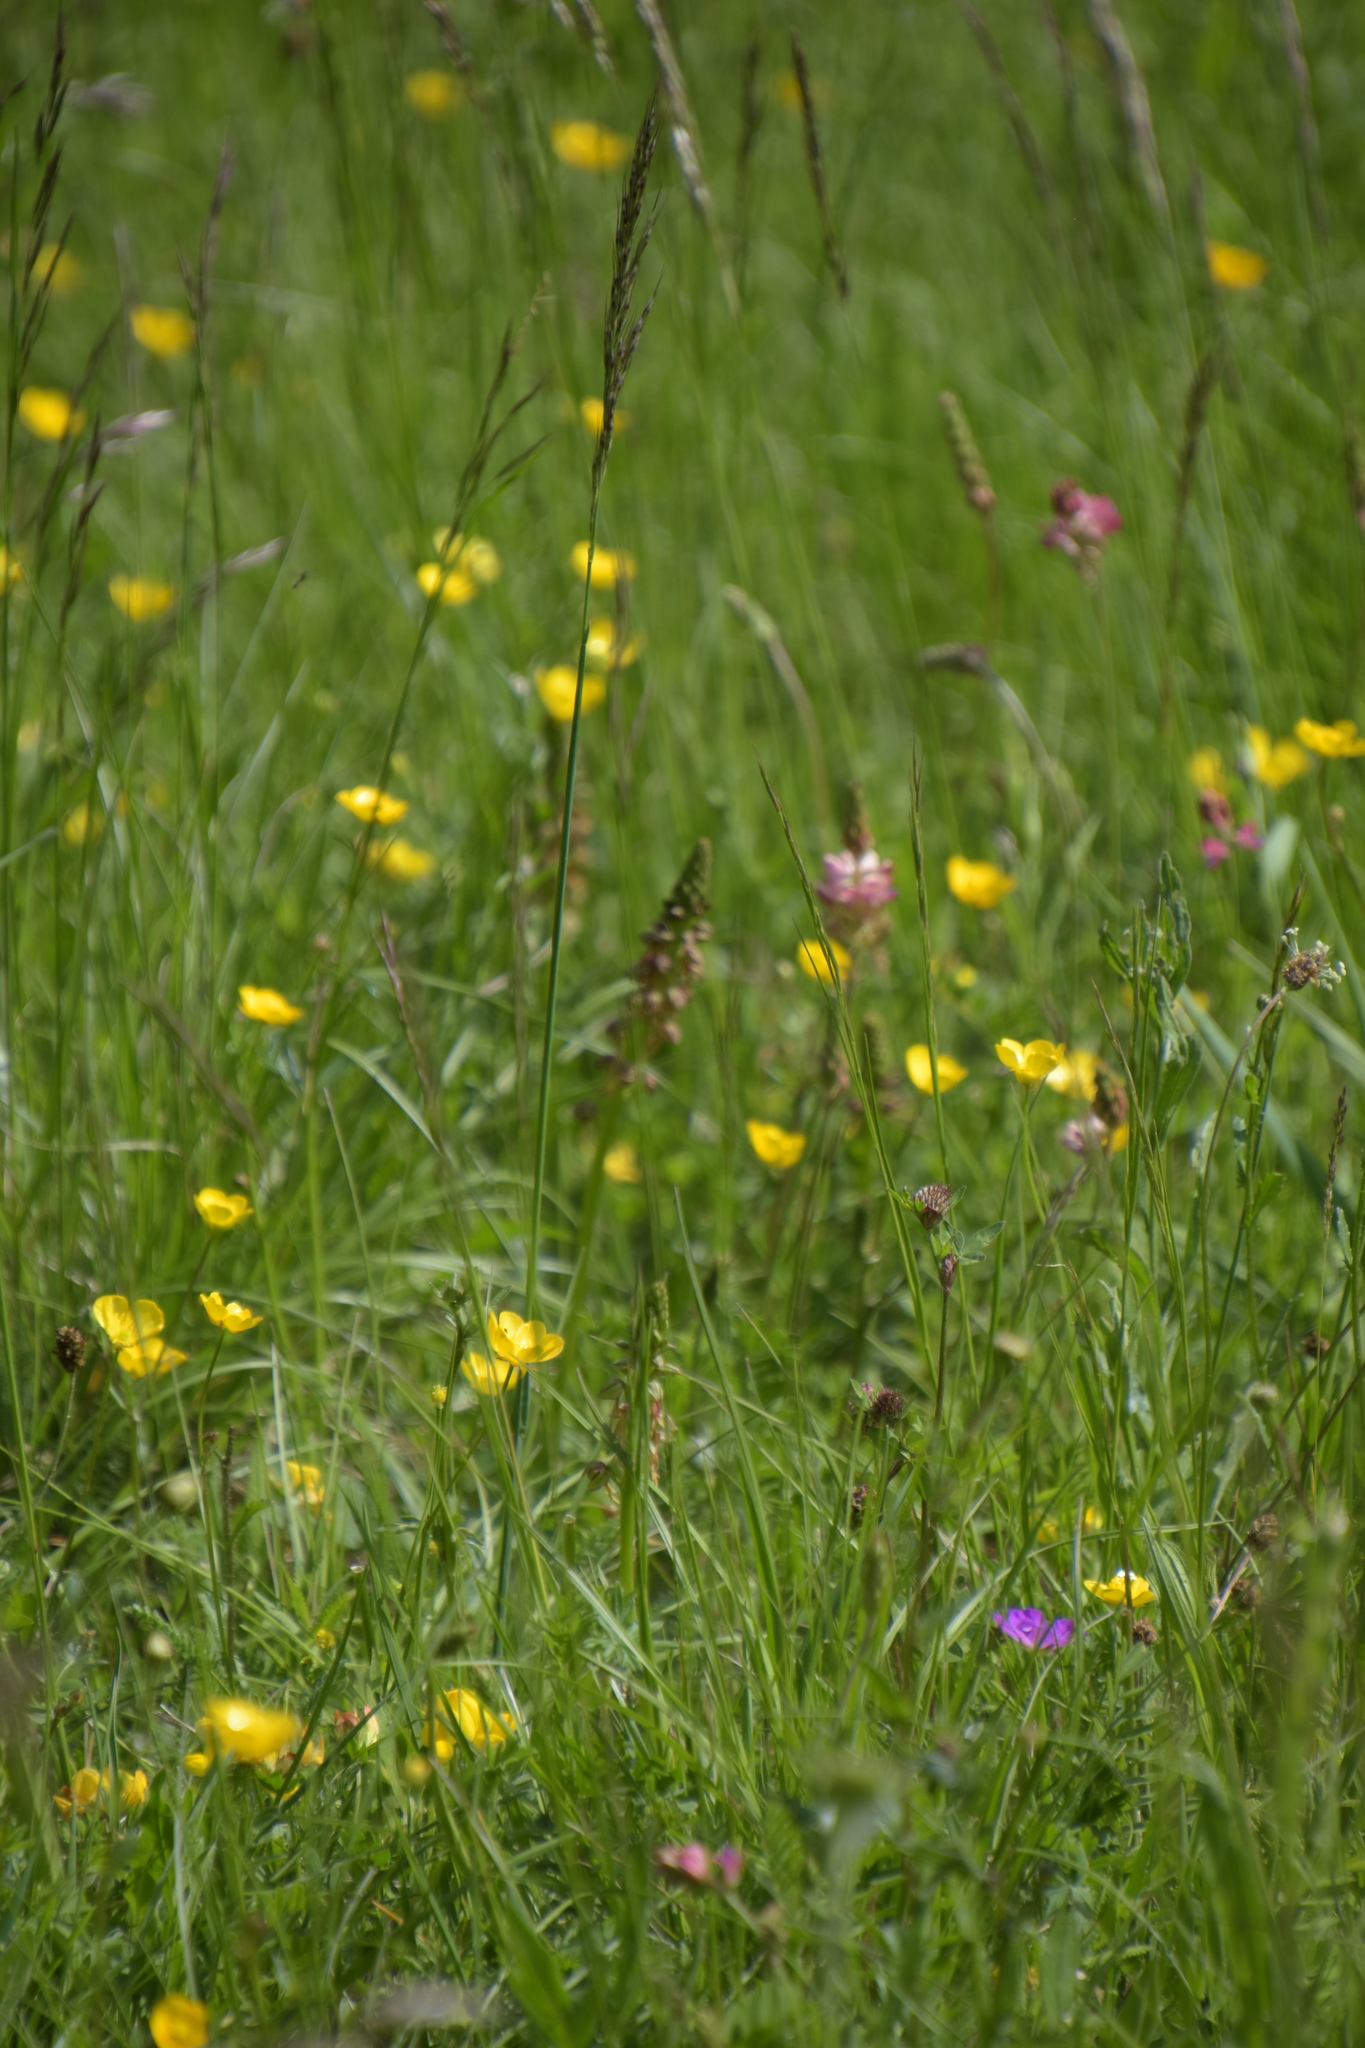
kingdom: Plantae
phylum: Tracheophyta
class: Liliopsida
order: Asparagales
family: Orchidaceae
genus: Orchis
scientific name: Orchis anthropophora
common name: Man orchid
